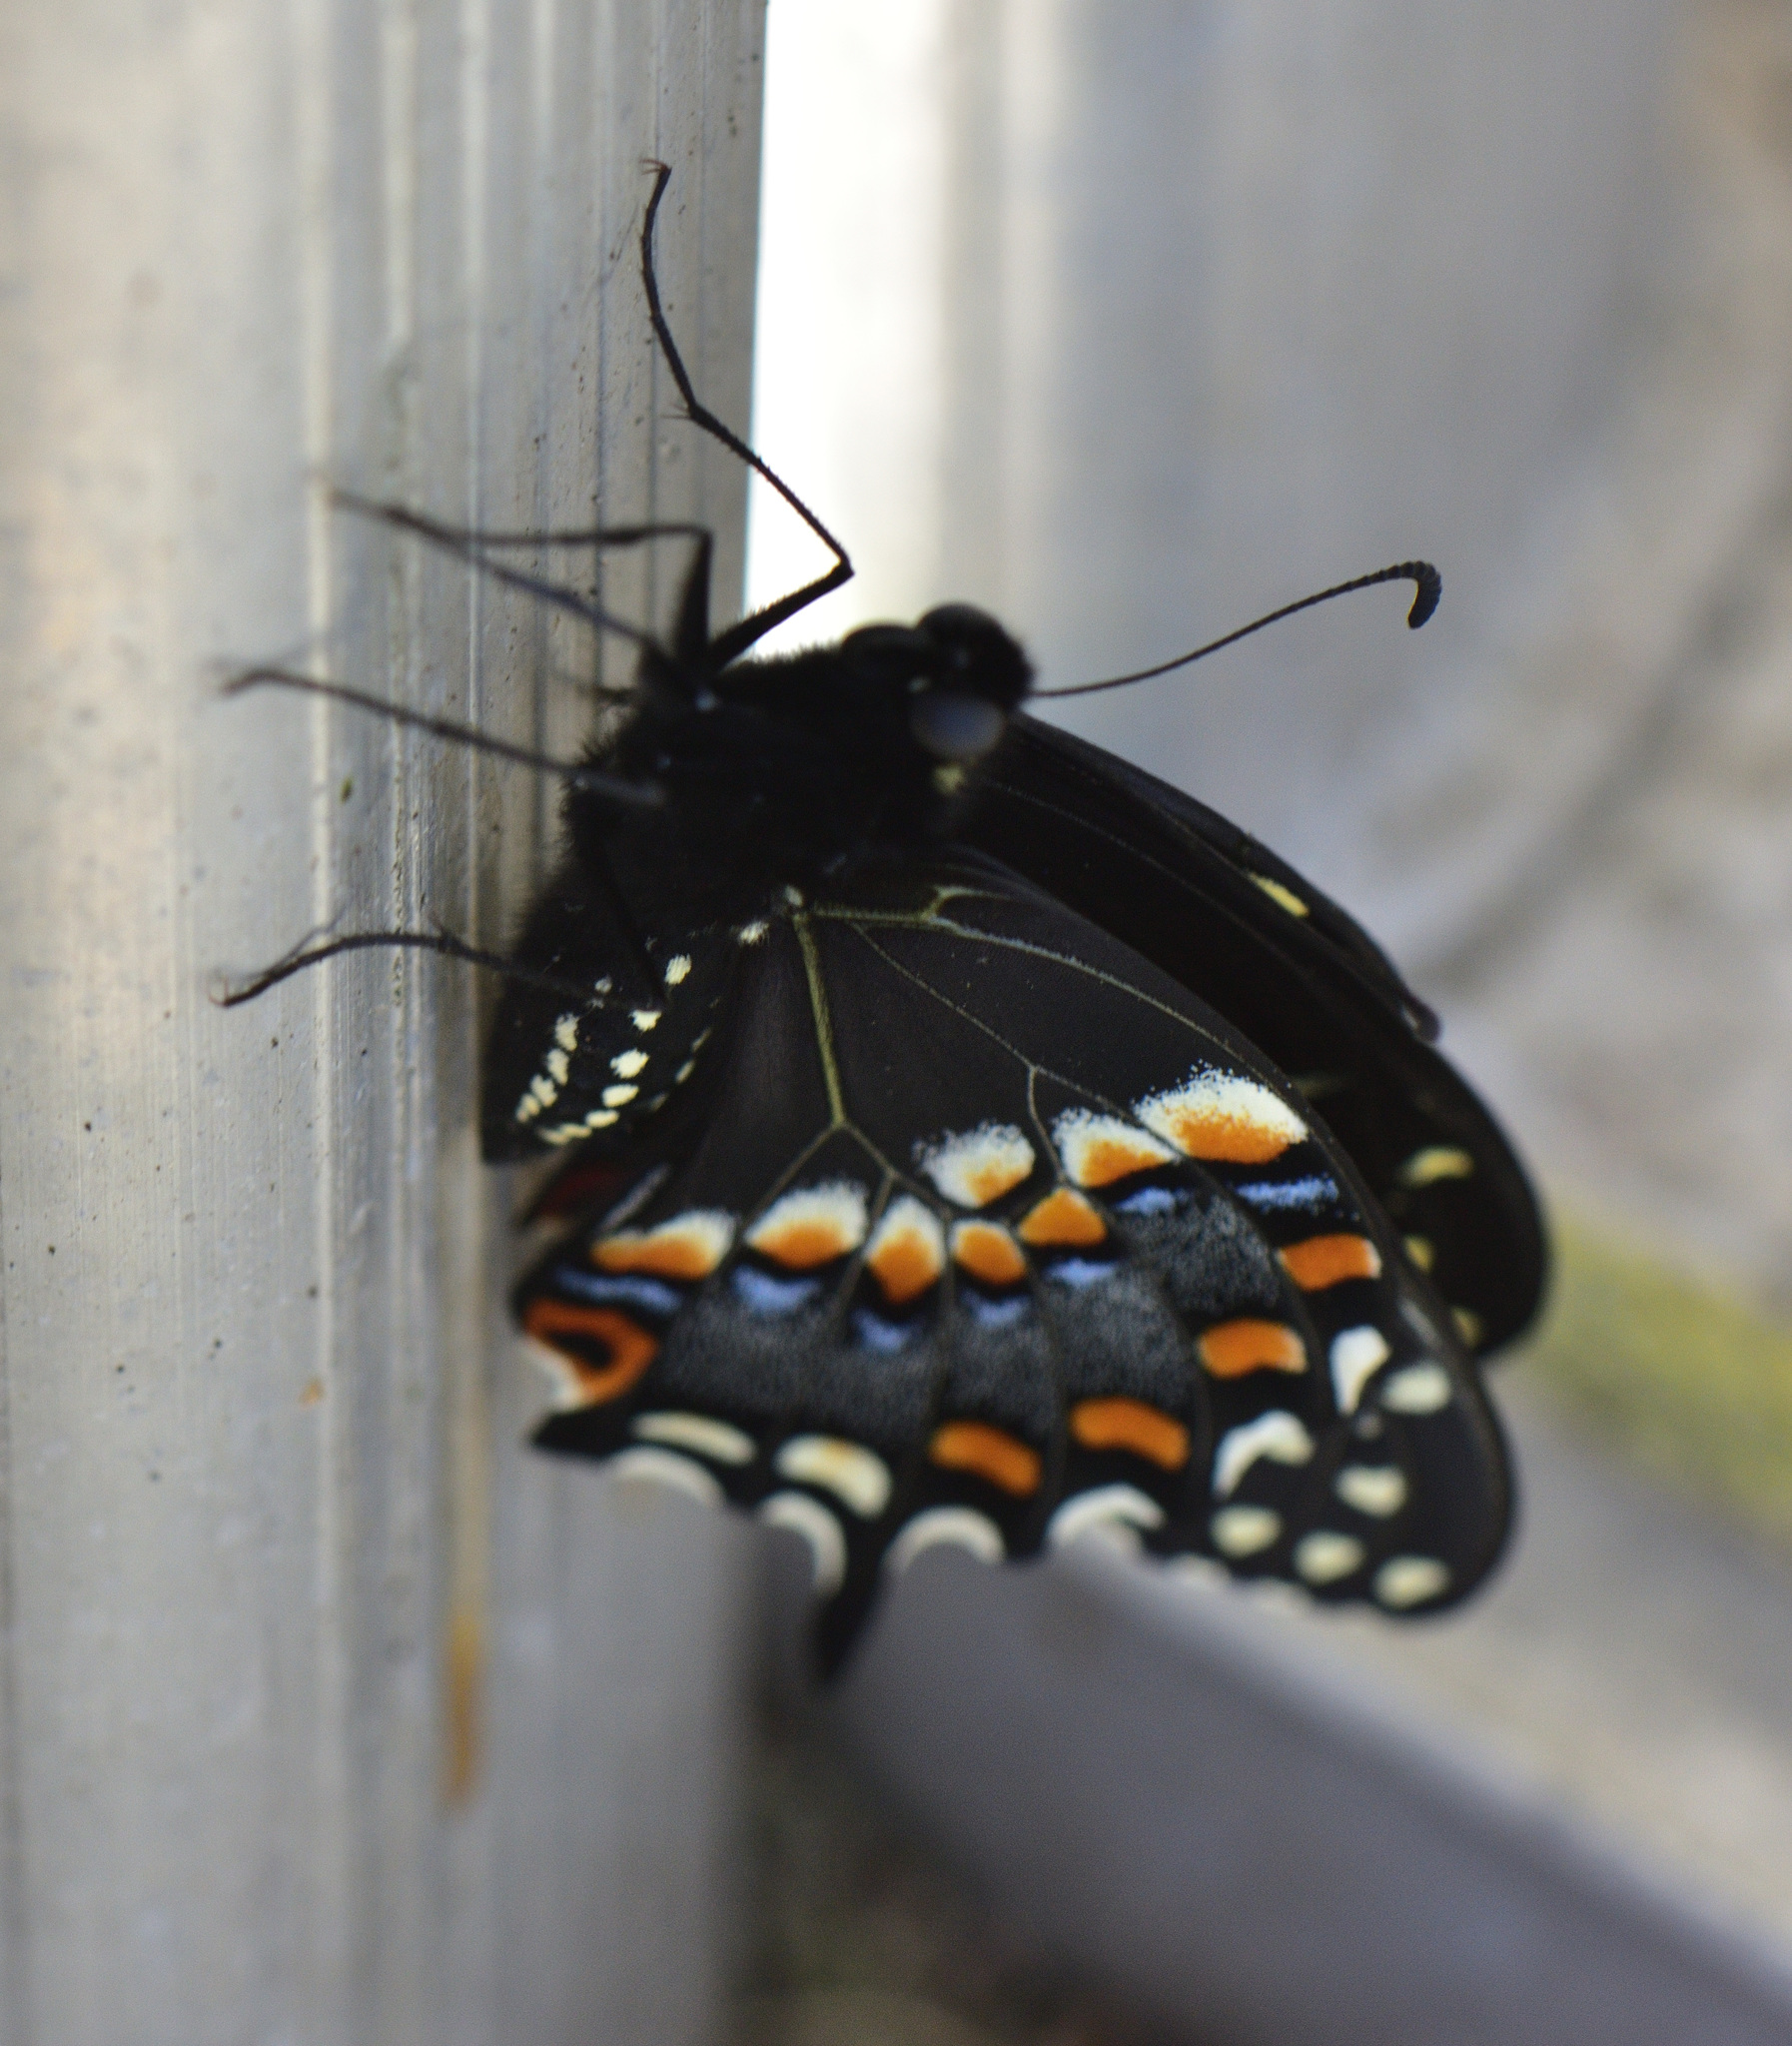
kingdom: Animalia
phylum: Arthropoda
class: Insecta
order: Lepidoptera
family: Papilionidae
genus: Papilio
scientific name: Papilio polyxenes
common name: Black swallowtail
